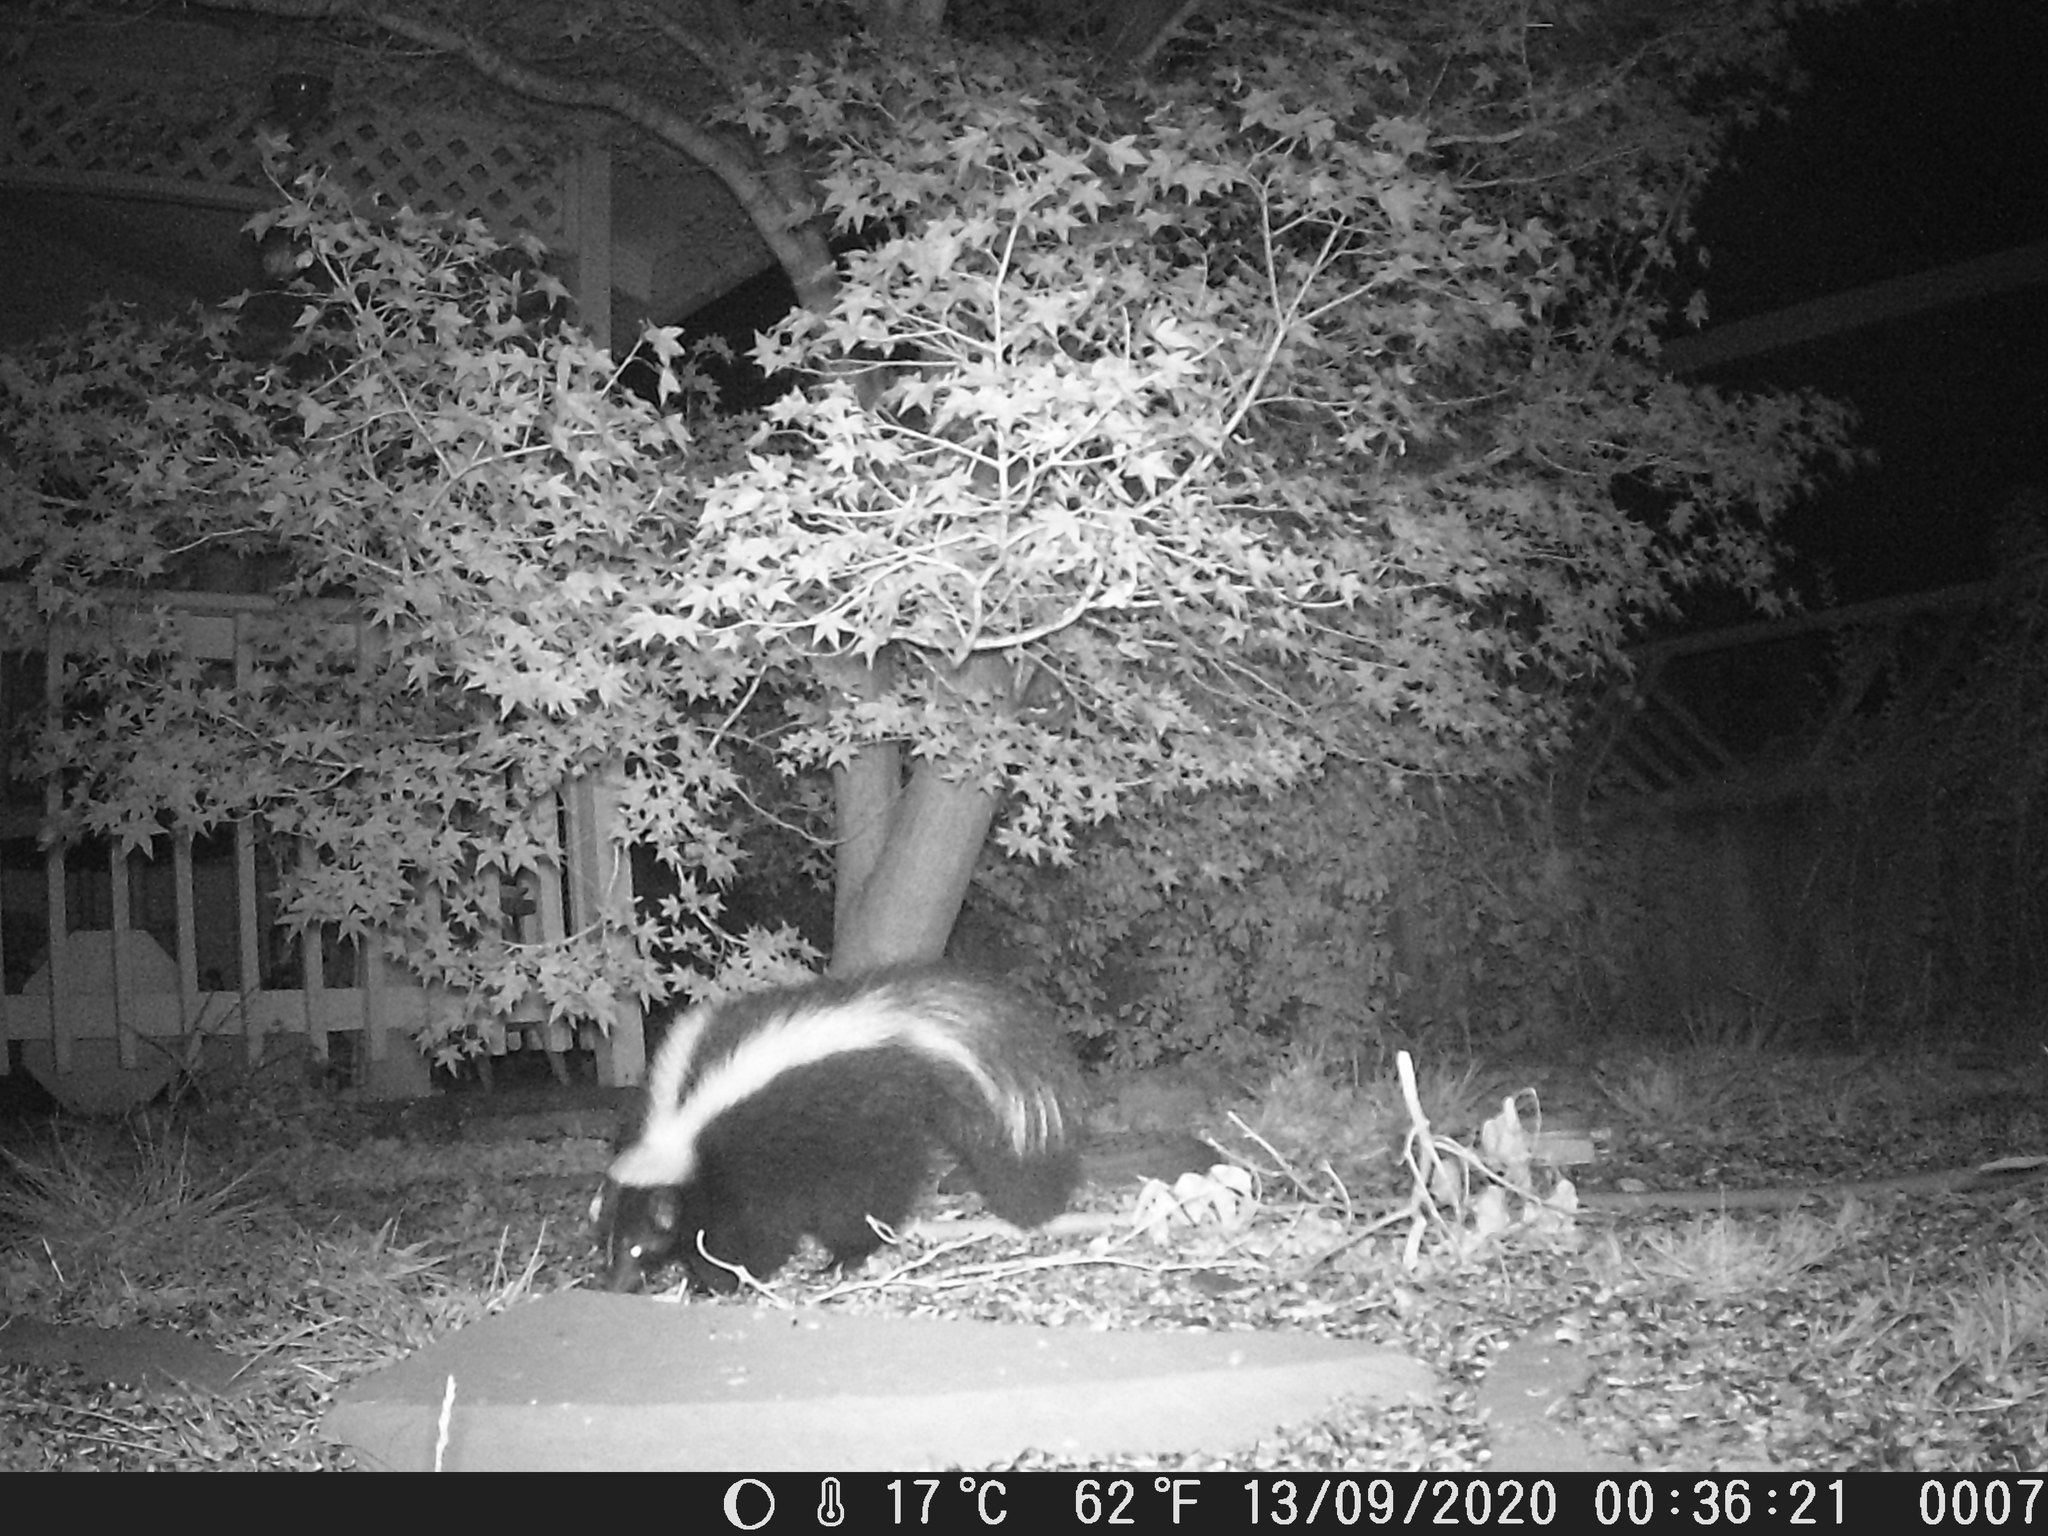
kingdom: Animalia
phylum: Chordata
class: Mammalia
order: Carnivora
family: Mephitidae
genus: Mephitis
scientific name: Mephitis mephitis
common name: Striped skunk
